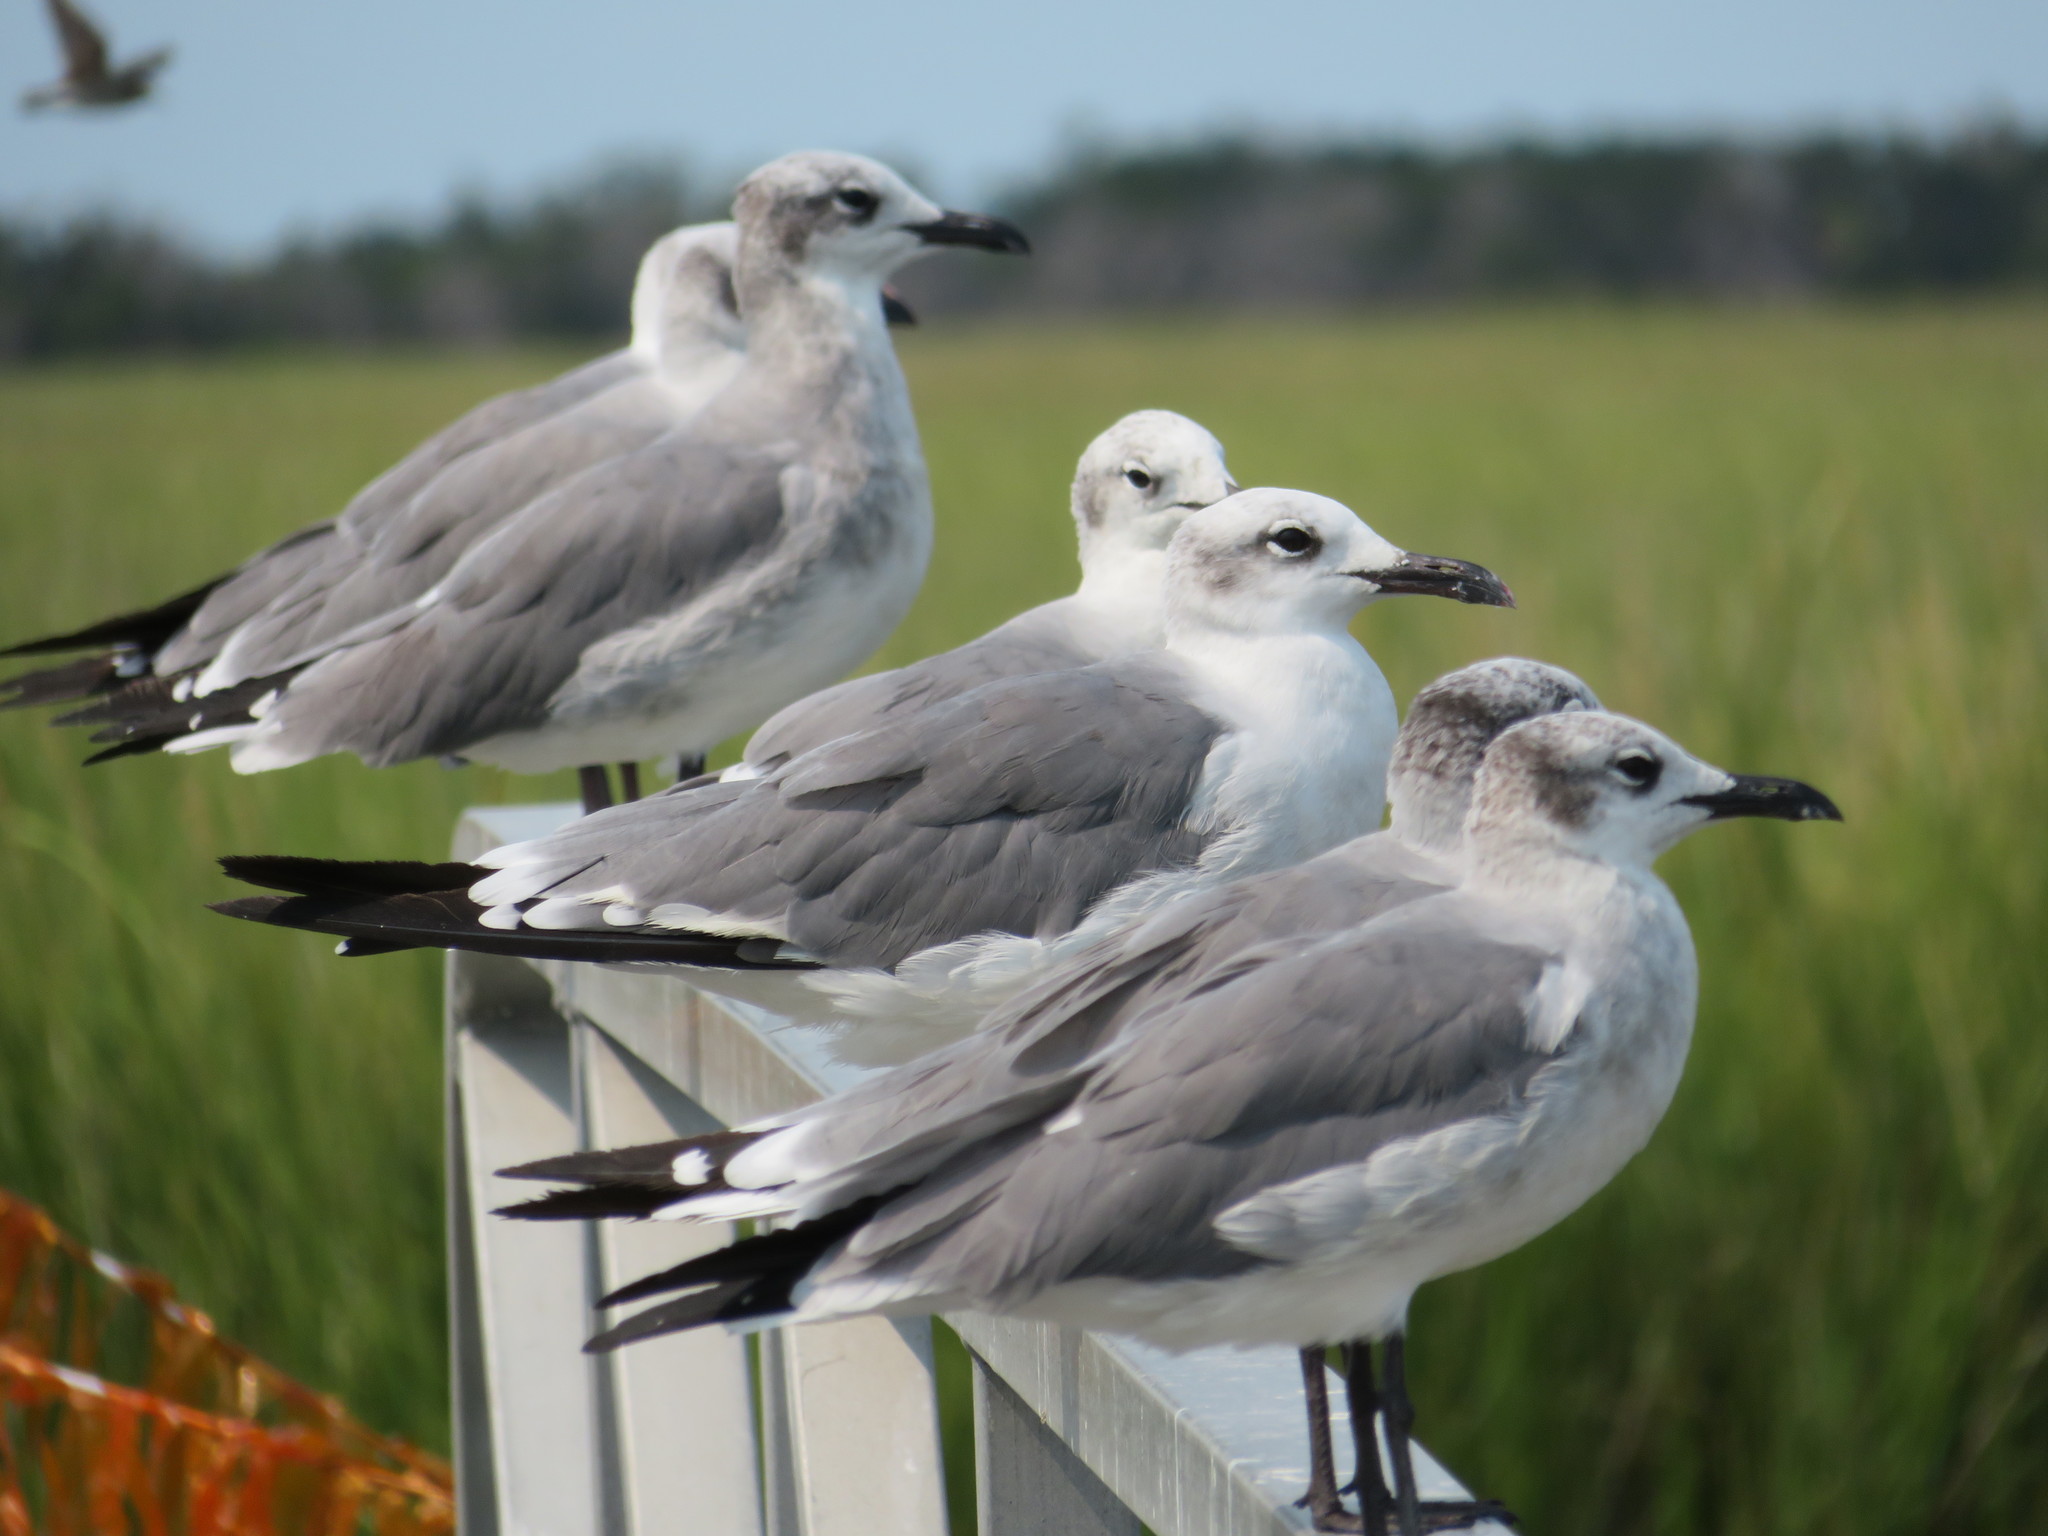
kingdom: Animalia
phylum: Chordata
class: Aves
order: Charadriiformes
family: Laridae
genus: Leucophaeus
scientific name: Leucophaeus atricilla
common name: Laughing gull
